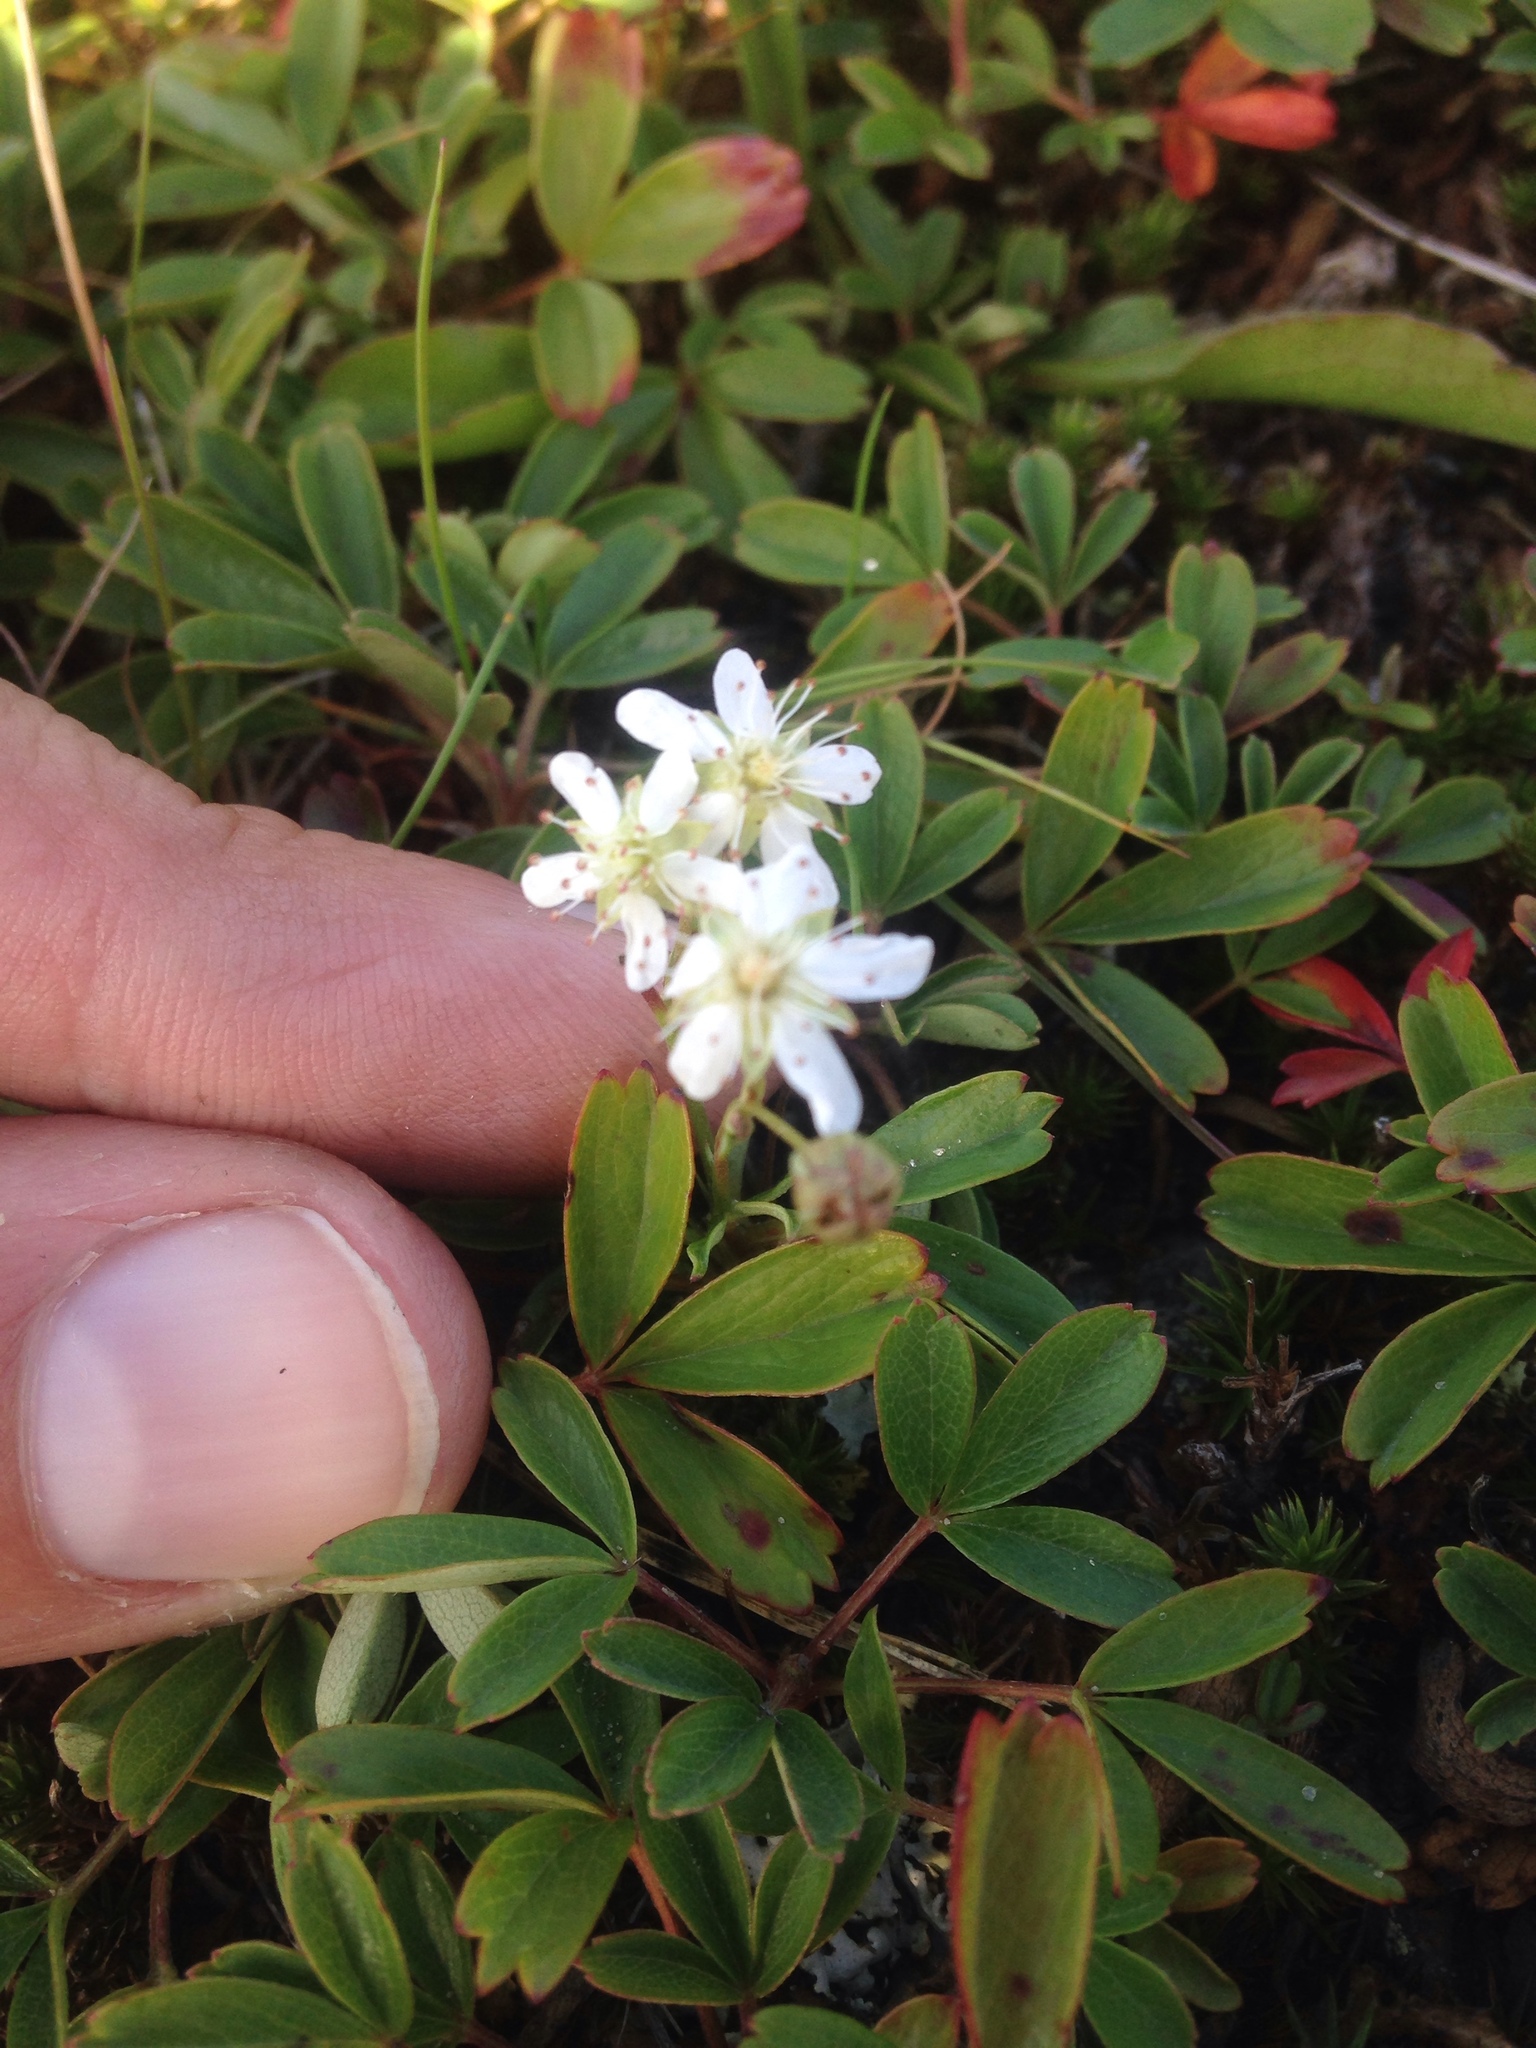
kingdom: Plantae
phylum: Tracheophyta
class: Magnoliopsida
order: Rosales
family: Rosaceae
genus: Sibbaldia
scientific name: Sibbaldia tridentata
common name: Three-toothed cinquefoil
